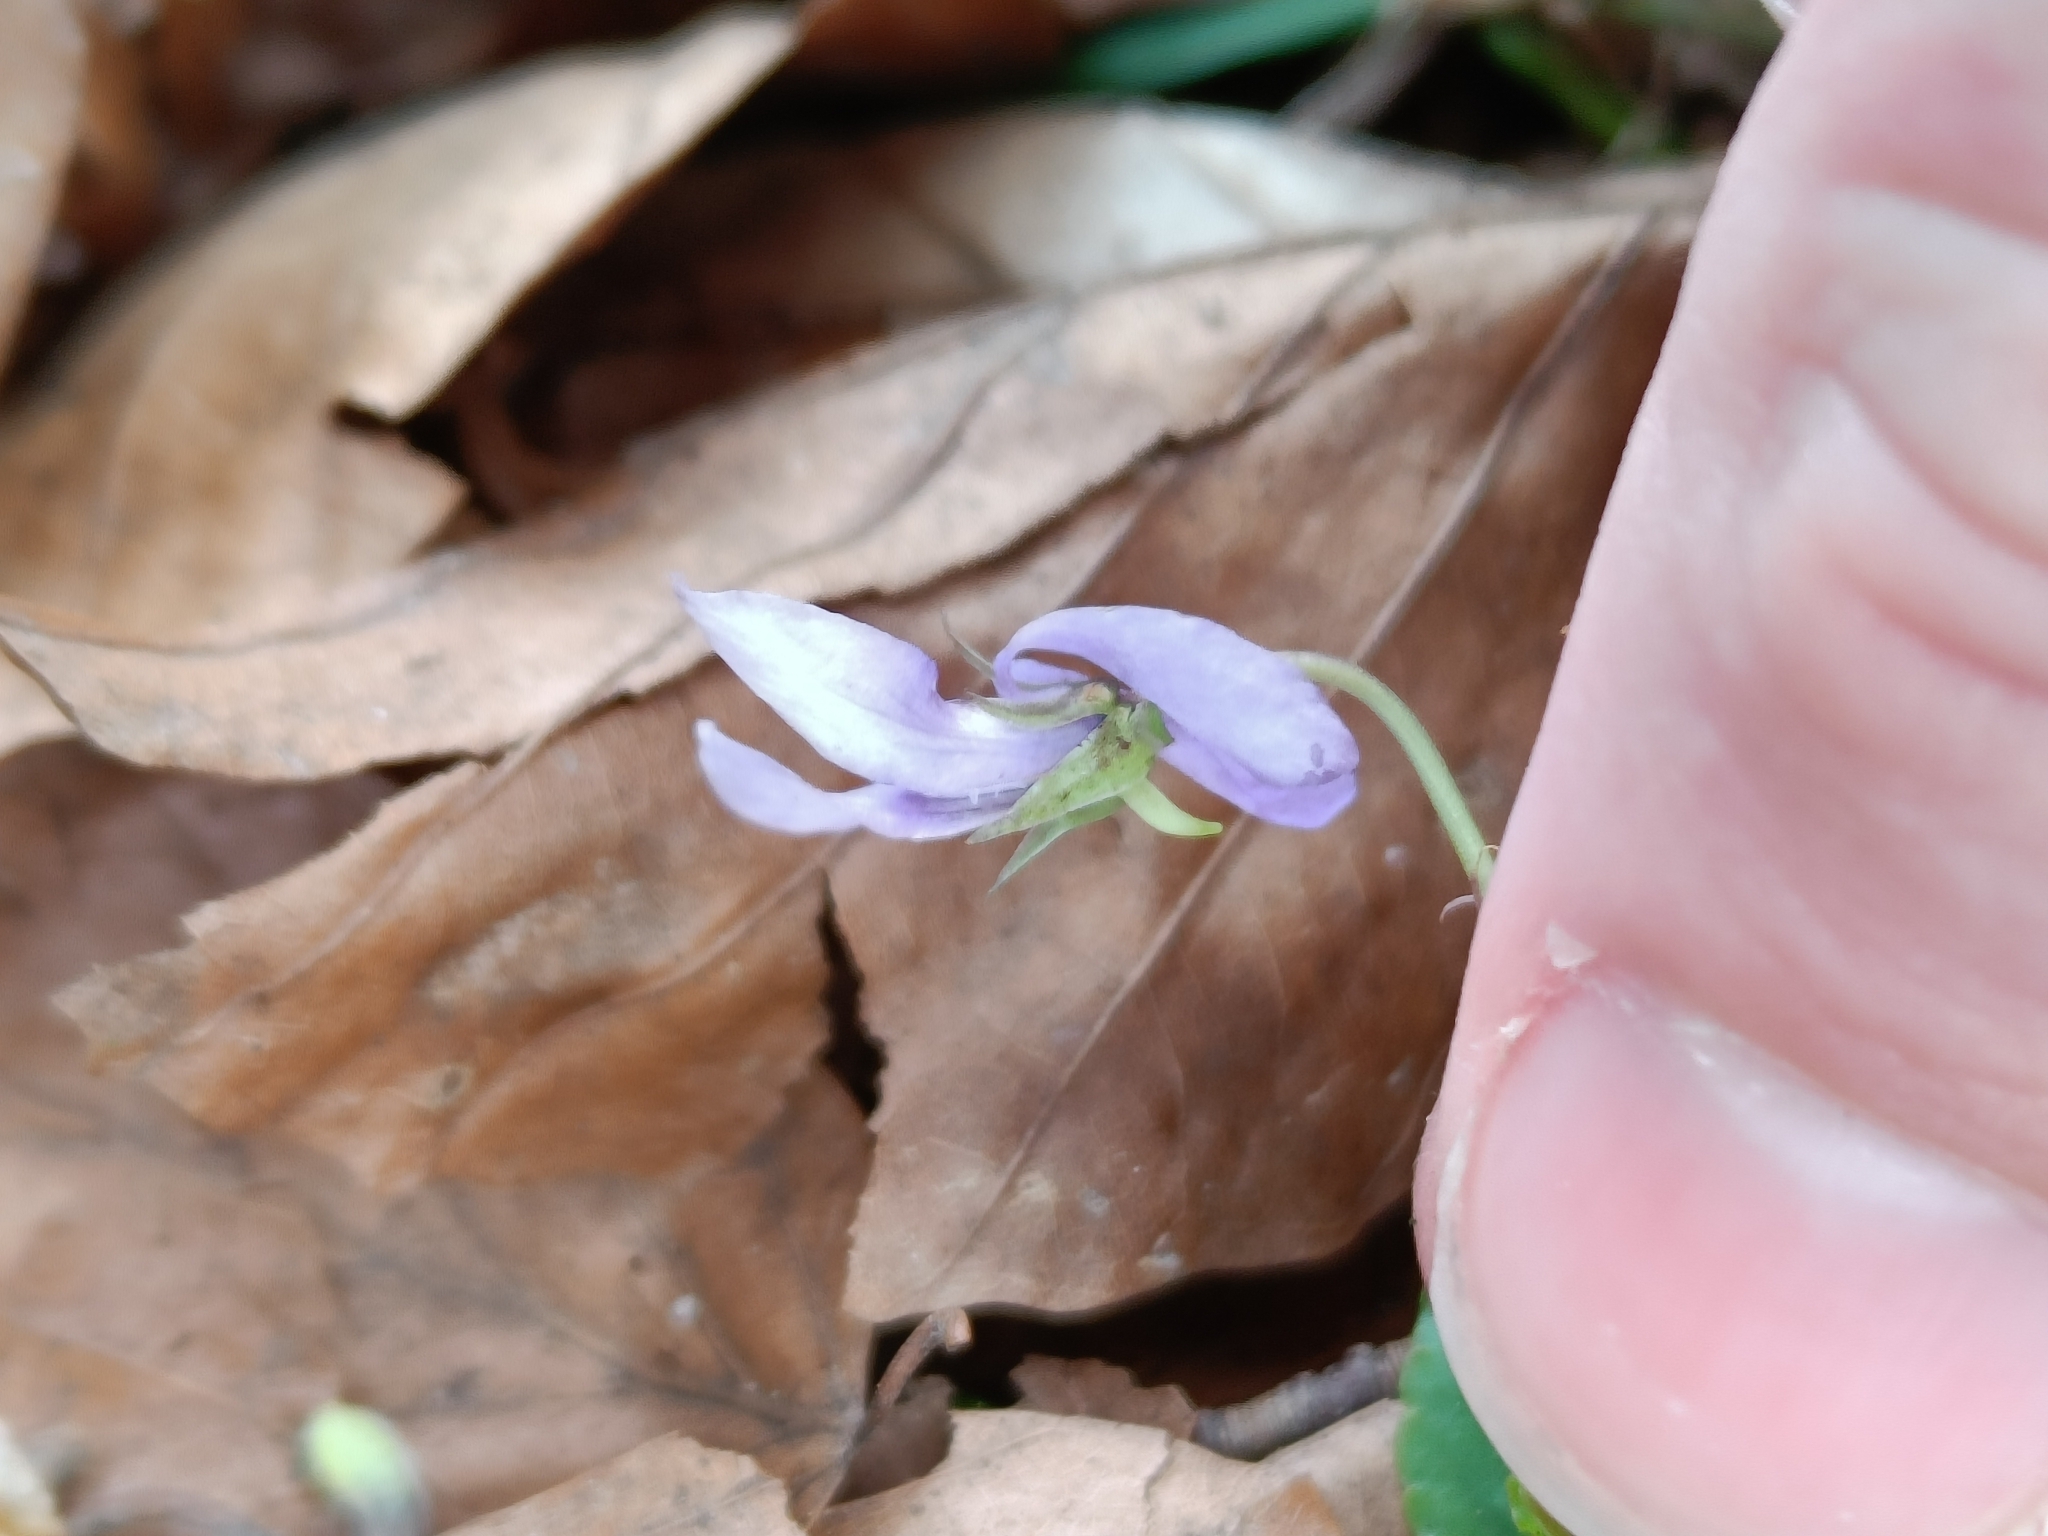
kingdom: Plantae
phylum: Tracheophyta
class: Magnoliopsida
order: Malpighiales
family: Violaceae
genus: Viola
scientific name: Viola reichenbachiana
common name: Early dog-violet
